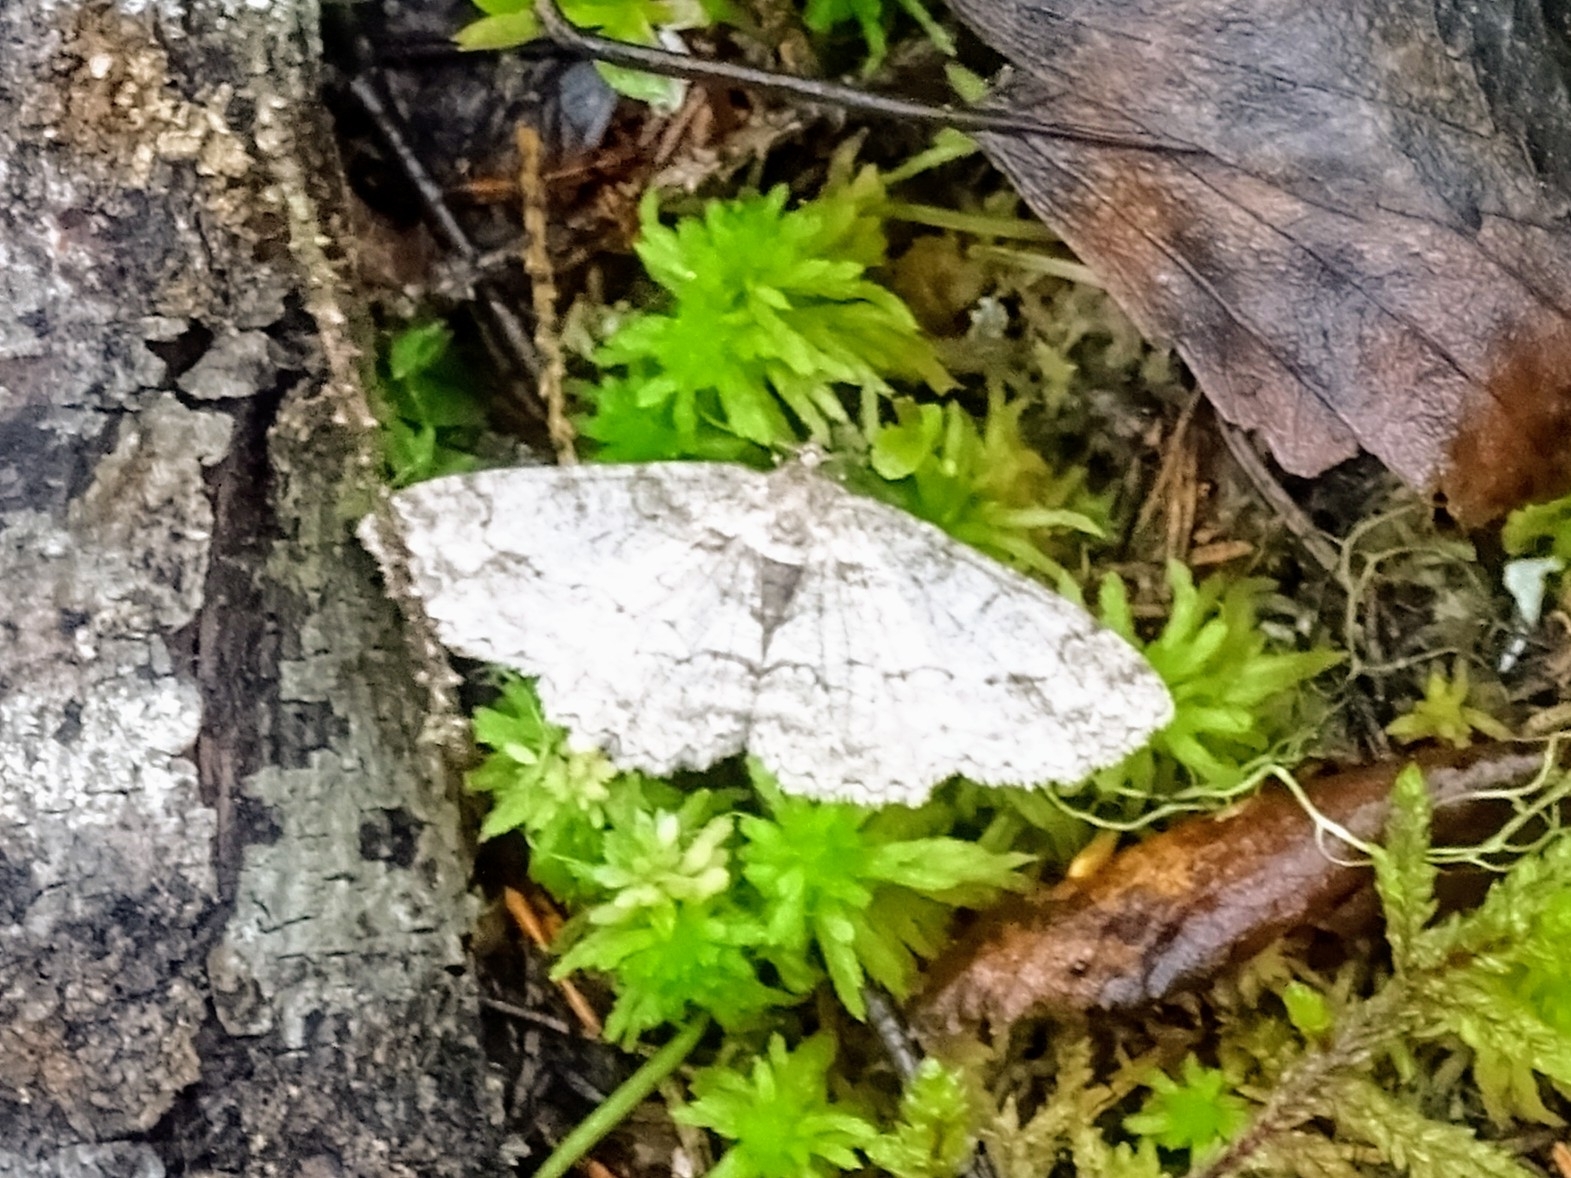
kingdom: Animalia
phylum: Arthropoda
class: Insecta
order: Lepidoptera
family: Geometridae
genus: Paradarisa
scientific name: Paradarisa consonaria
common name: Square spot
